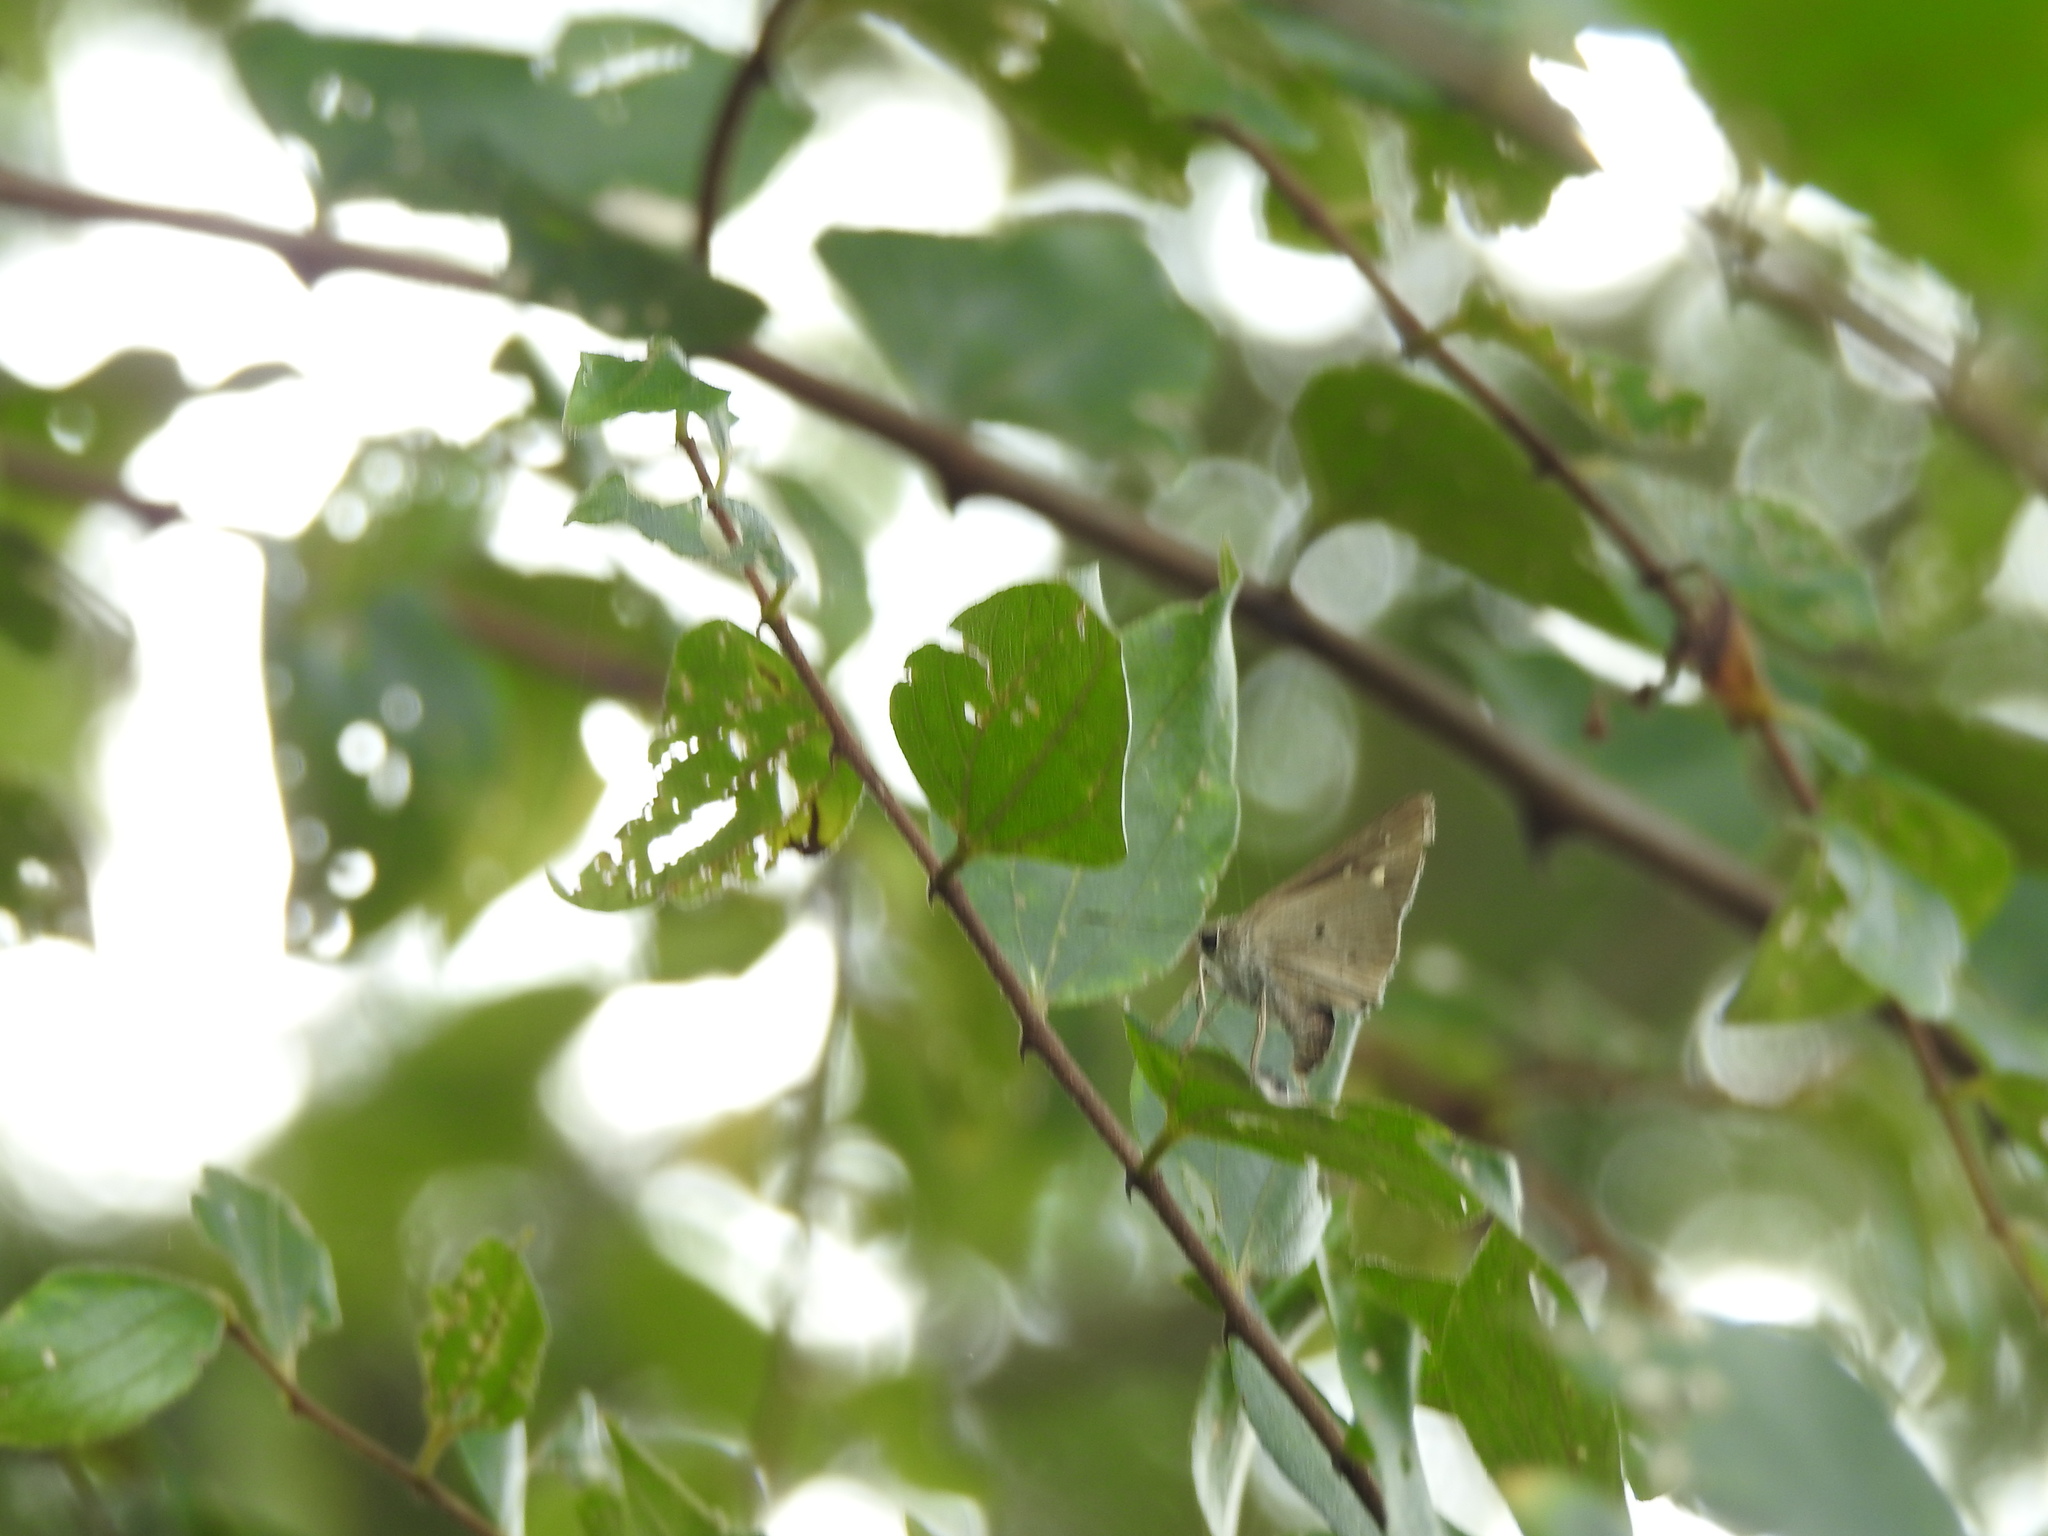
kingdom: Animalia
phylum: Arthropoda
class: Insecta
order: Lepidoptera
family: Hesperiidae
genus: Suastus
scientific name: Suastus gremius
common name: Indian palm bob
